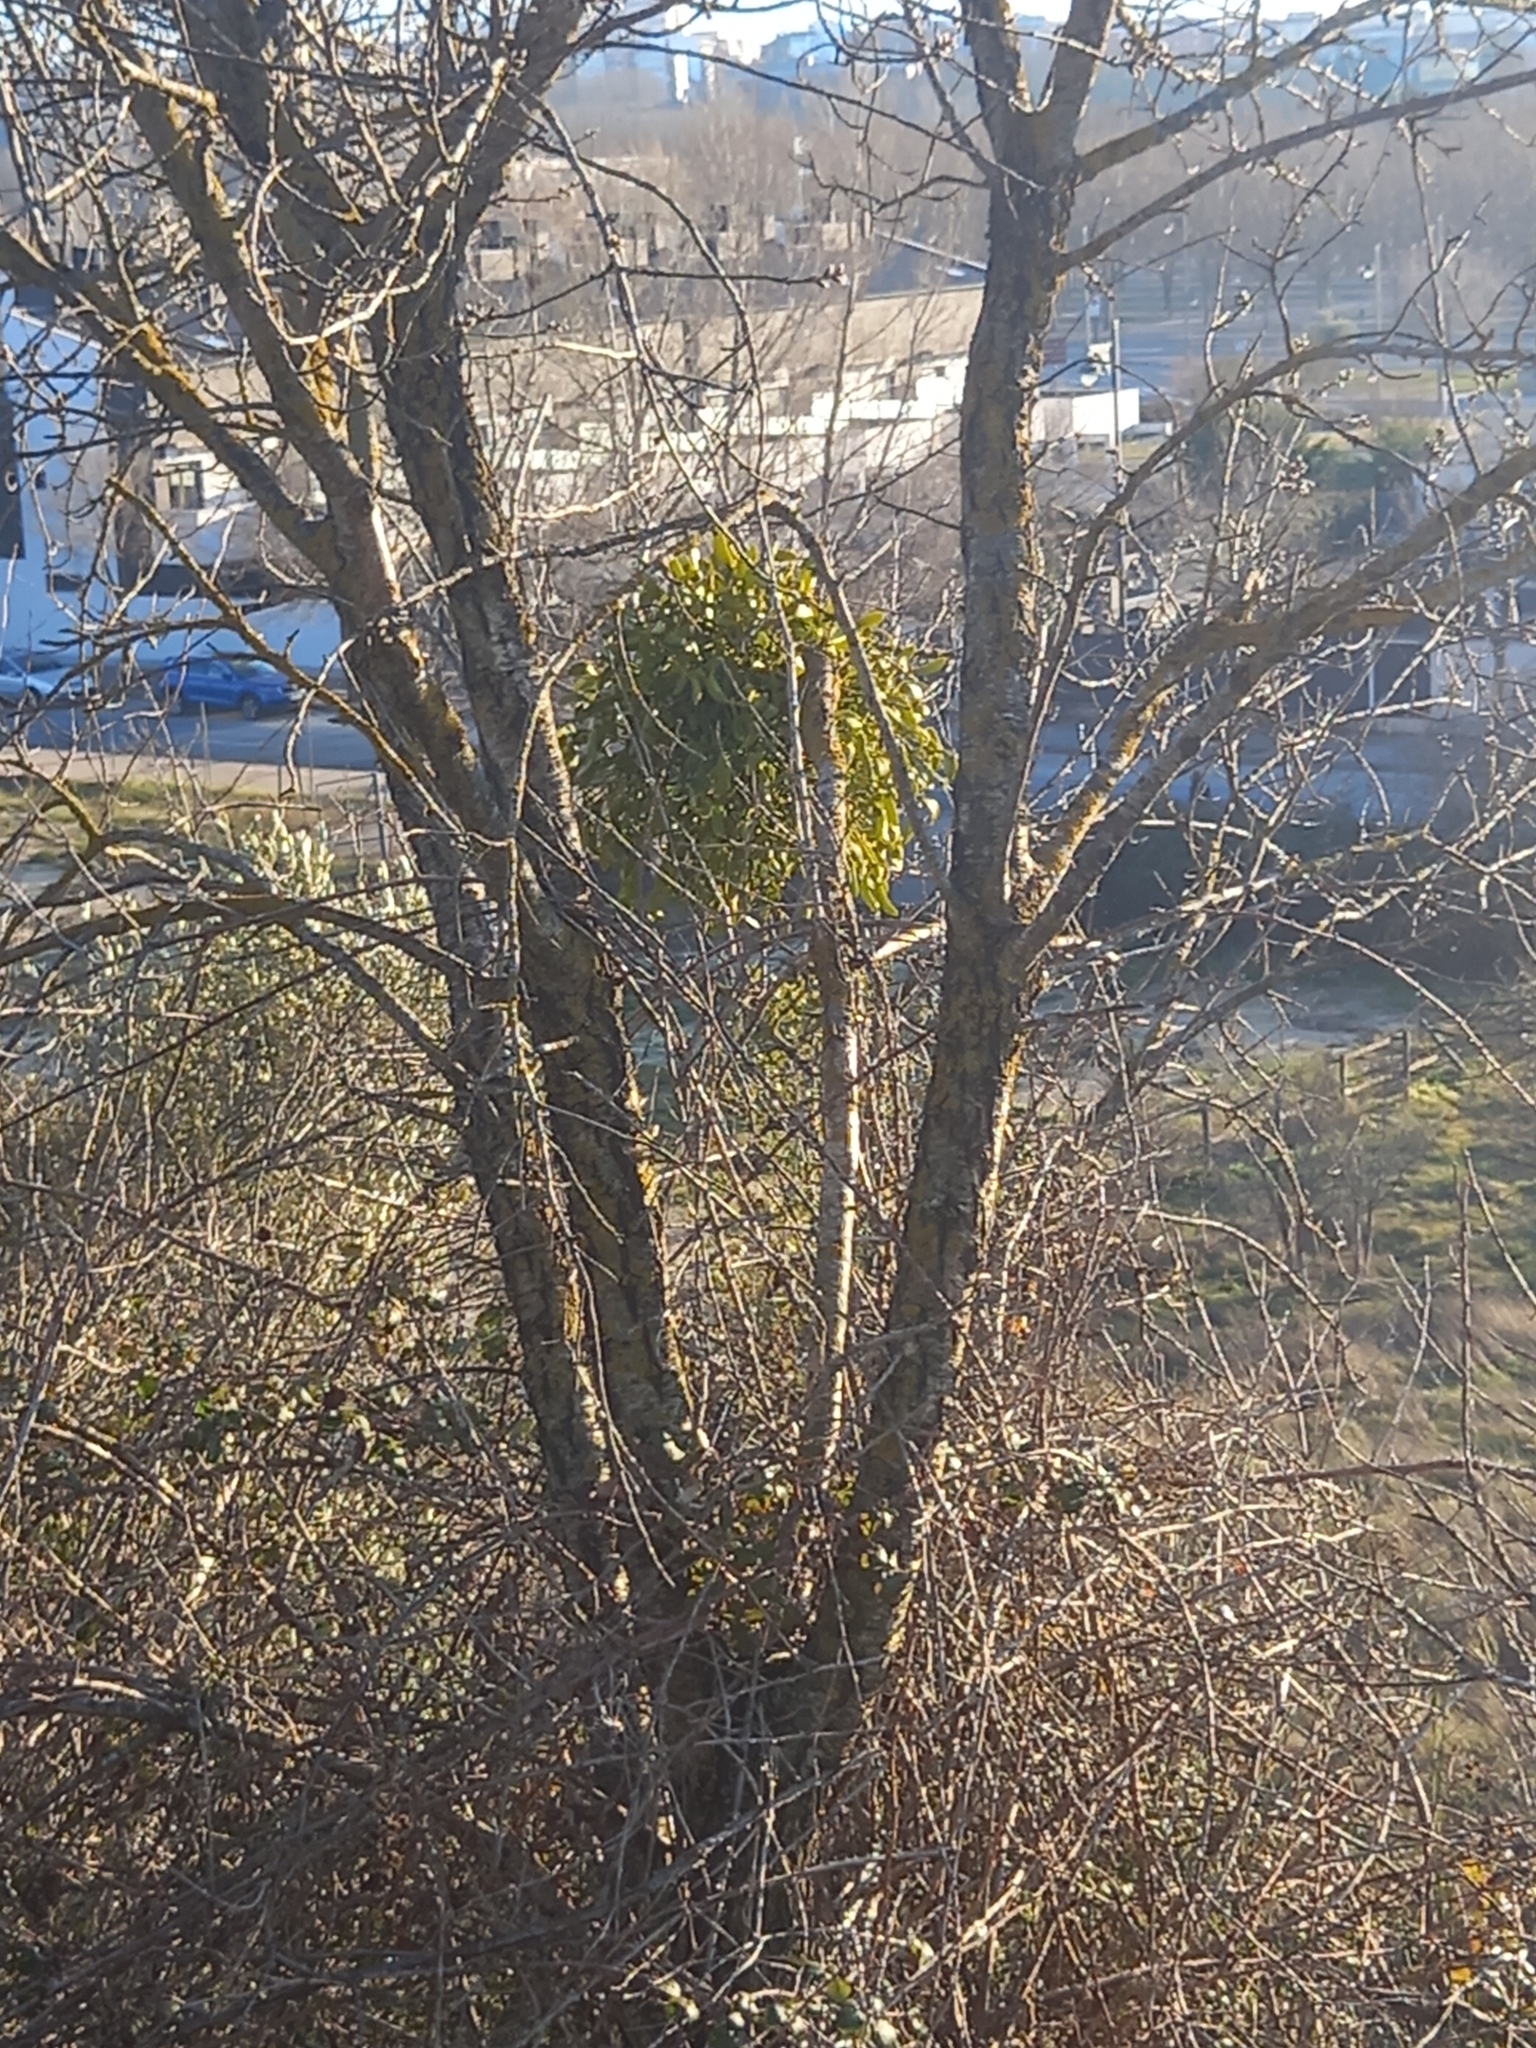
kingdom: Plantae
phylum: Tracheophyta
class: Magnoliopsida
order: Santalales
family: Viscaceae
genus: Viscum
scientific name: Viscum album
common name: Mistletoe
